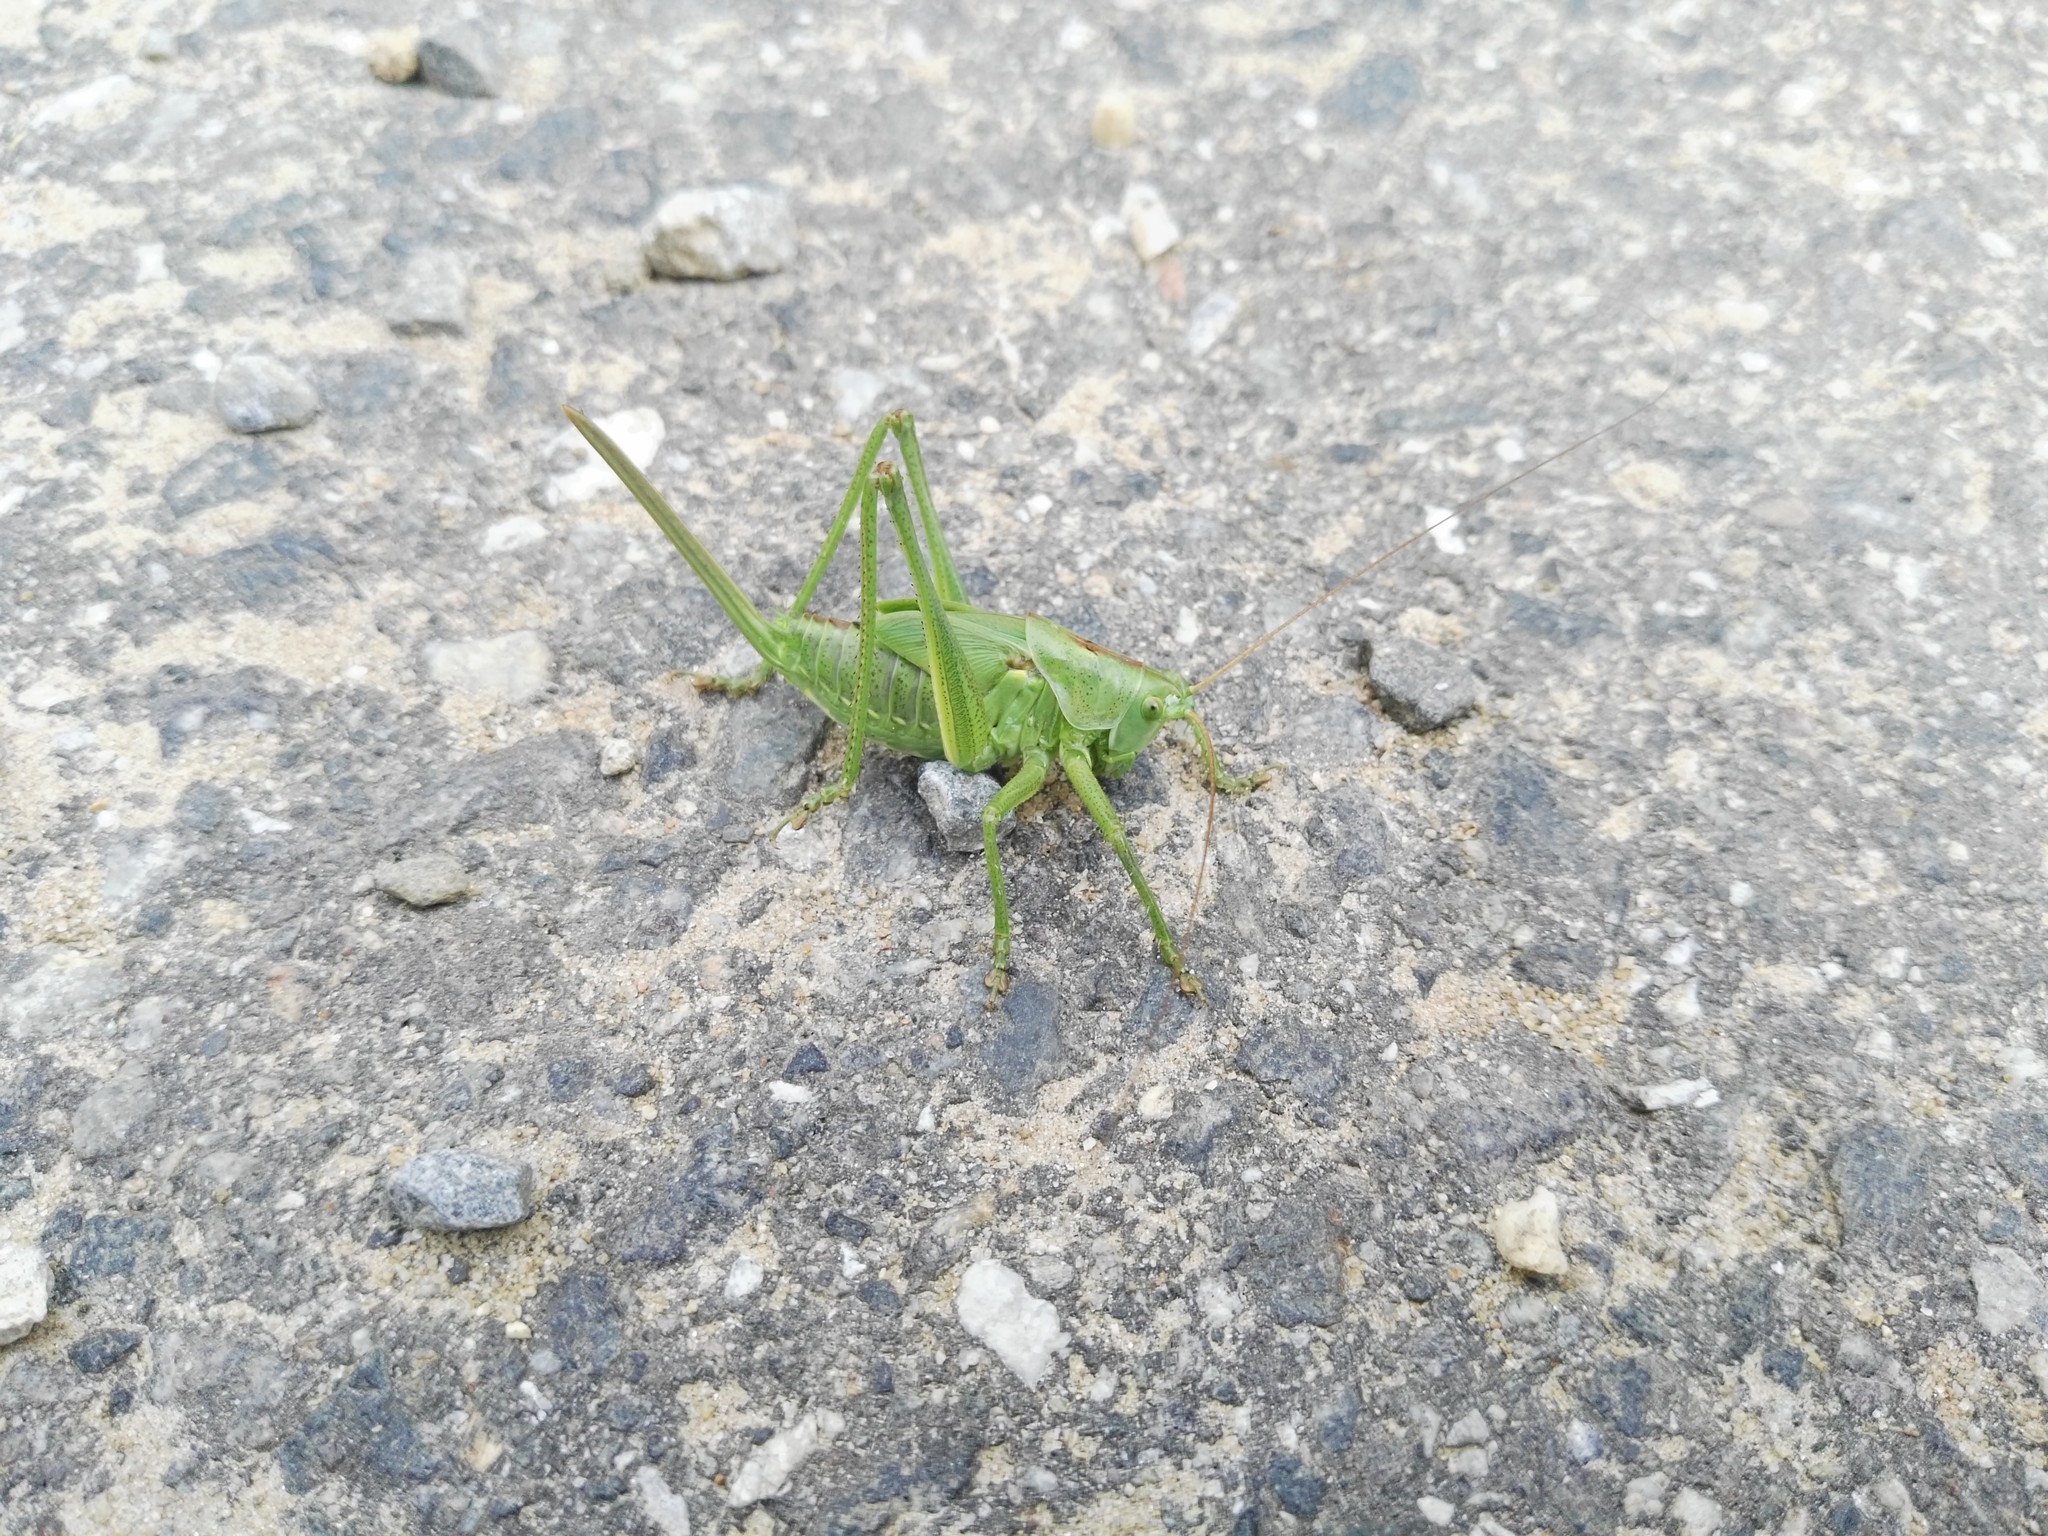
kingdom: Animalia
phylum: Arthropoda
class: Insecta
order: Orthoptera
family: Tettigoniidae
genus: Tettigonia
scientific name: Tettigonia viridissima
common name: Great green bush-cricket
